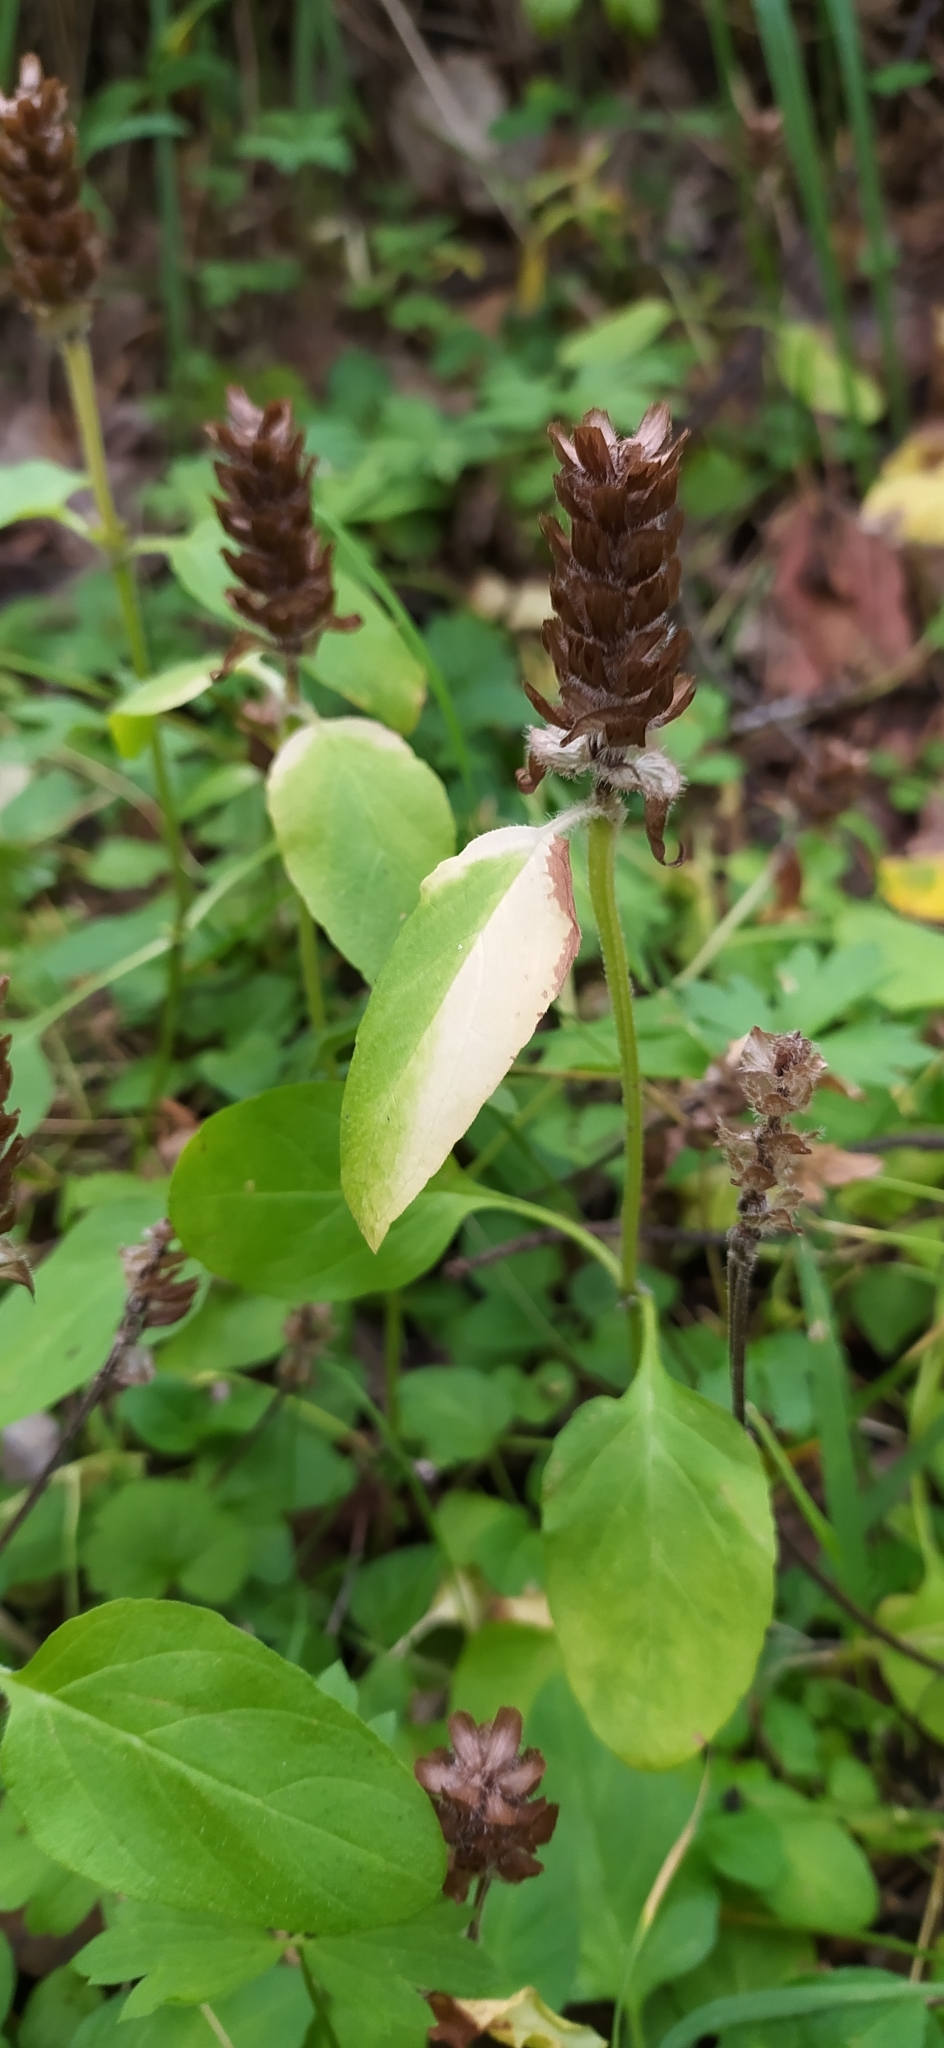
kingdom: Plantae
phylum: Tracheophyta
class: Magnoliopsida
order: Lamiales
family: Lamiaceae
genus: Prunella
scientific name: Prunella vulgaris
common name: Heal-all
